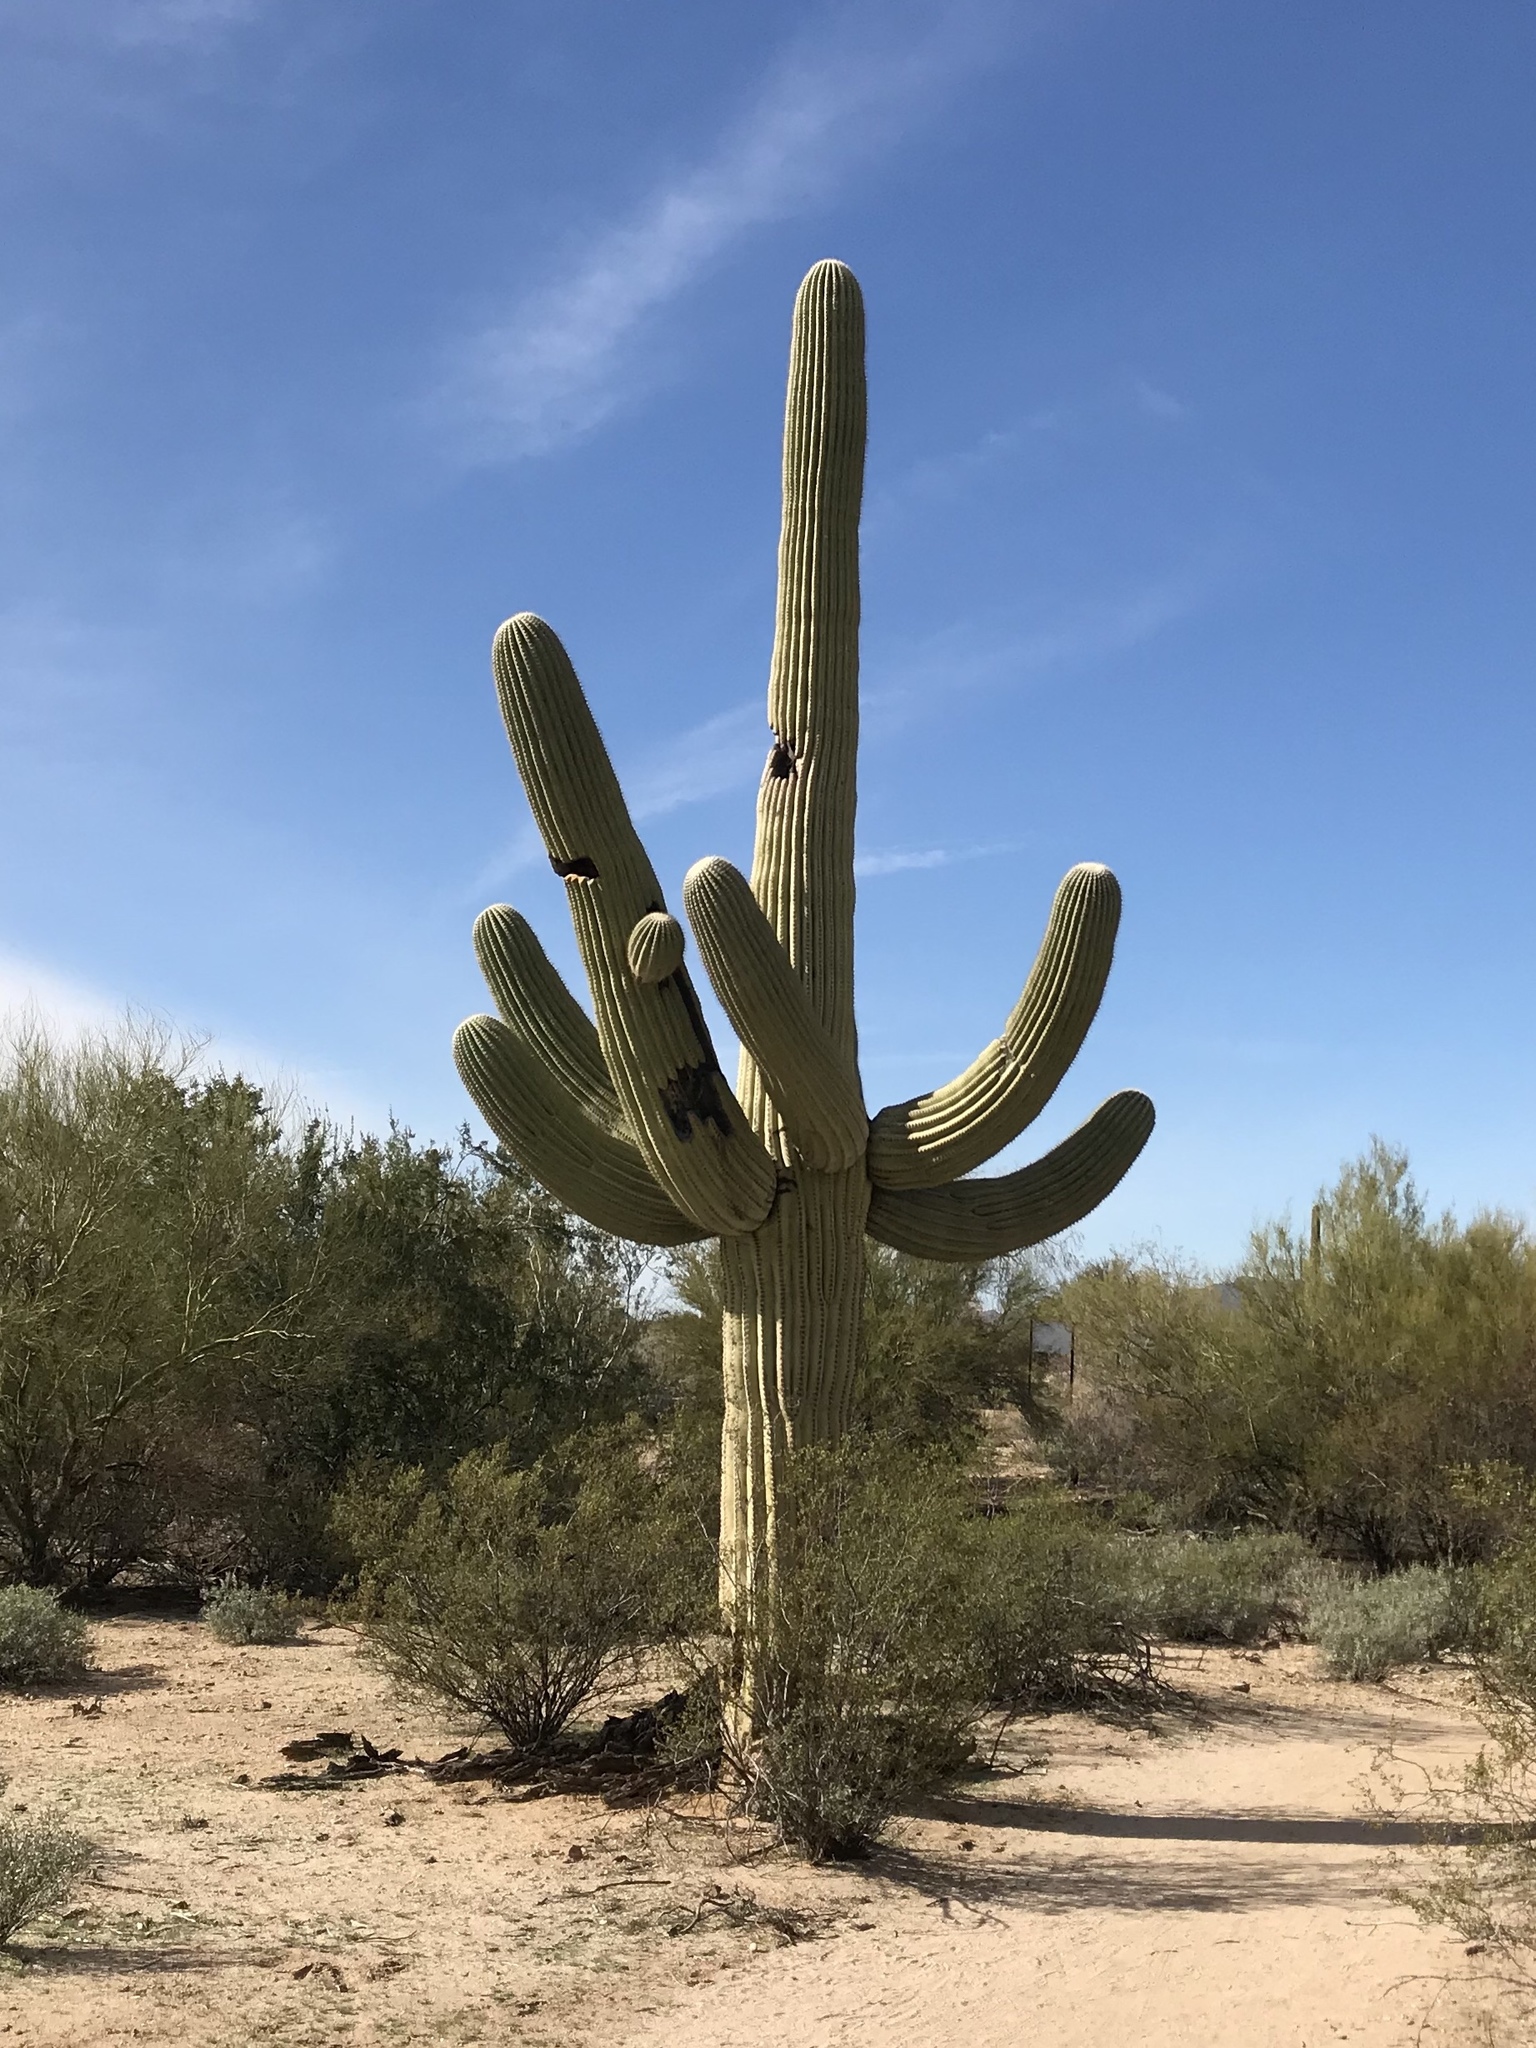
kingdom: Plantae
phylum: Tracheophyta
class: Magnoliopsida
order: Caryophyllales
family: Cactaceae
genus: Carnegiea
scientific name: Carnegiea gigantea
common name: Saguaro
